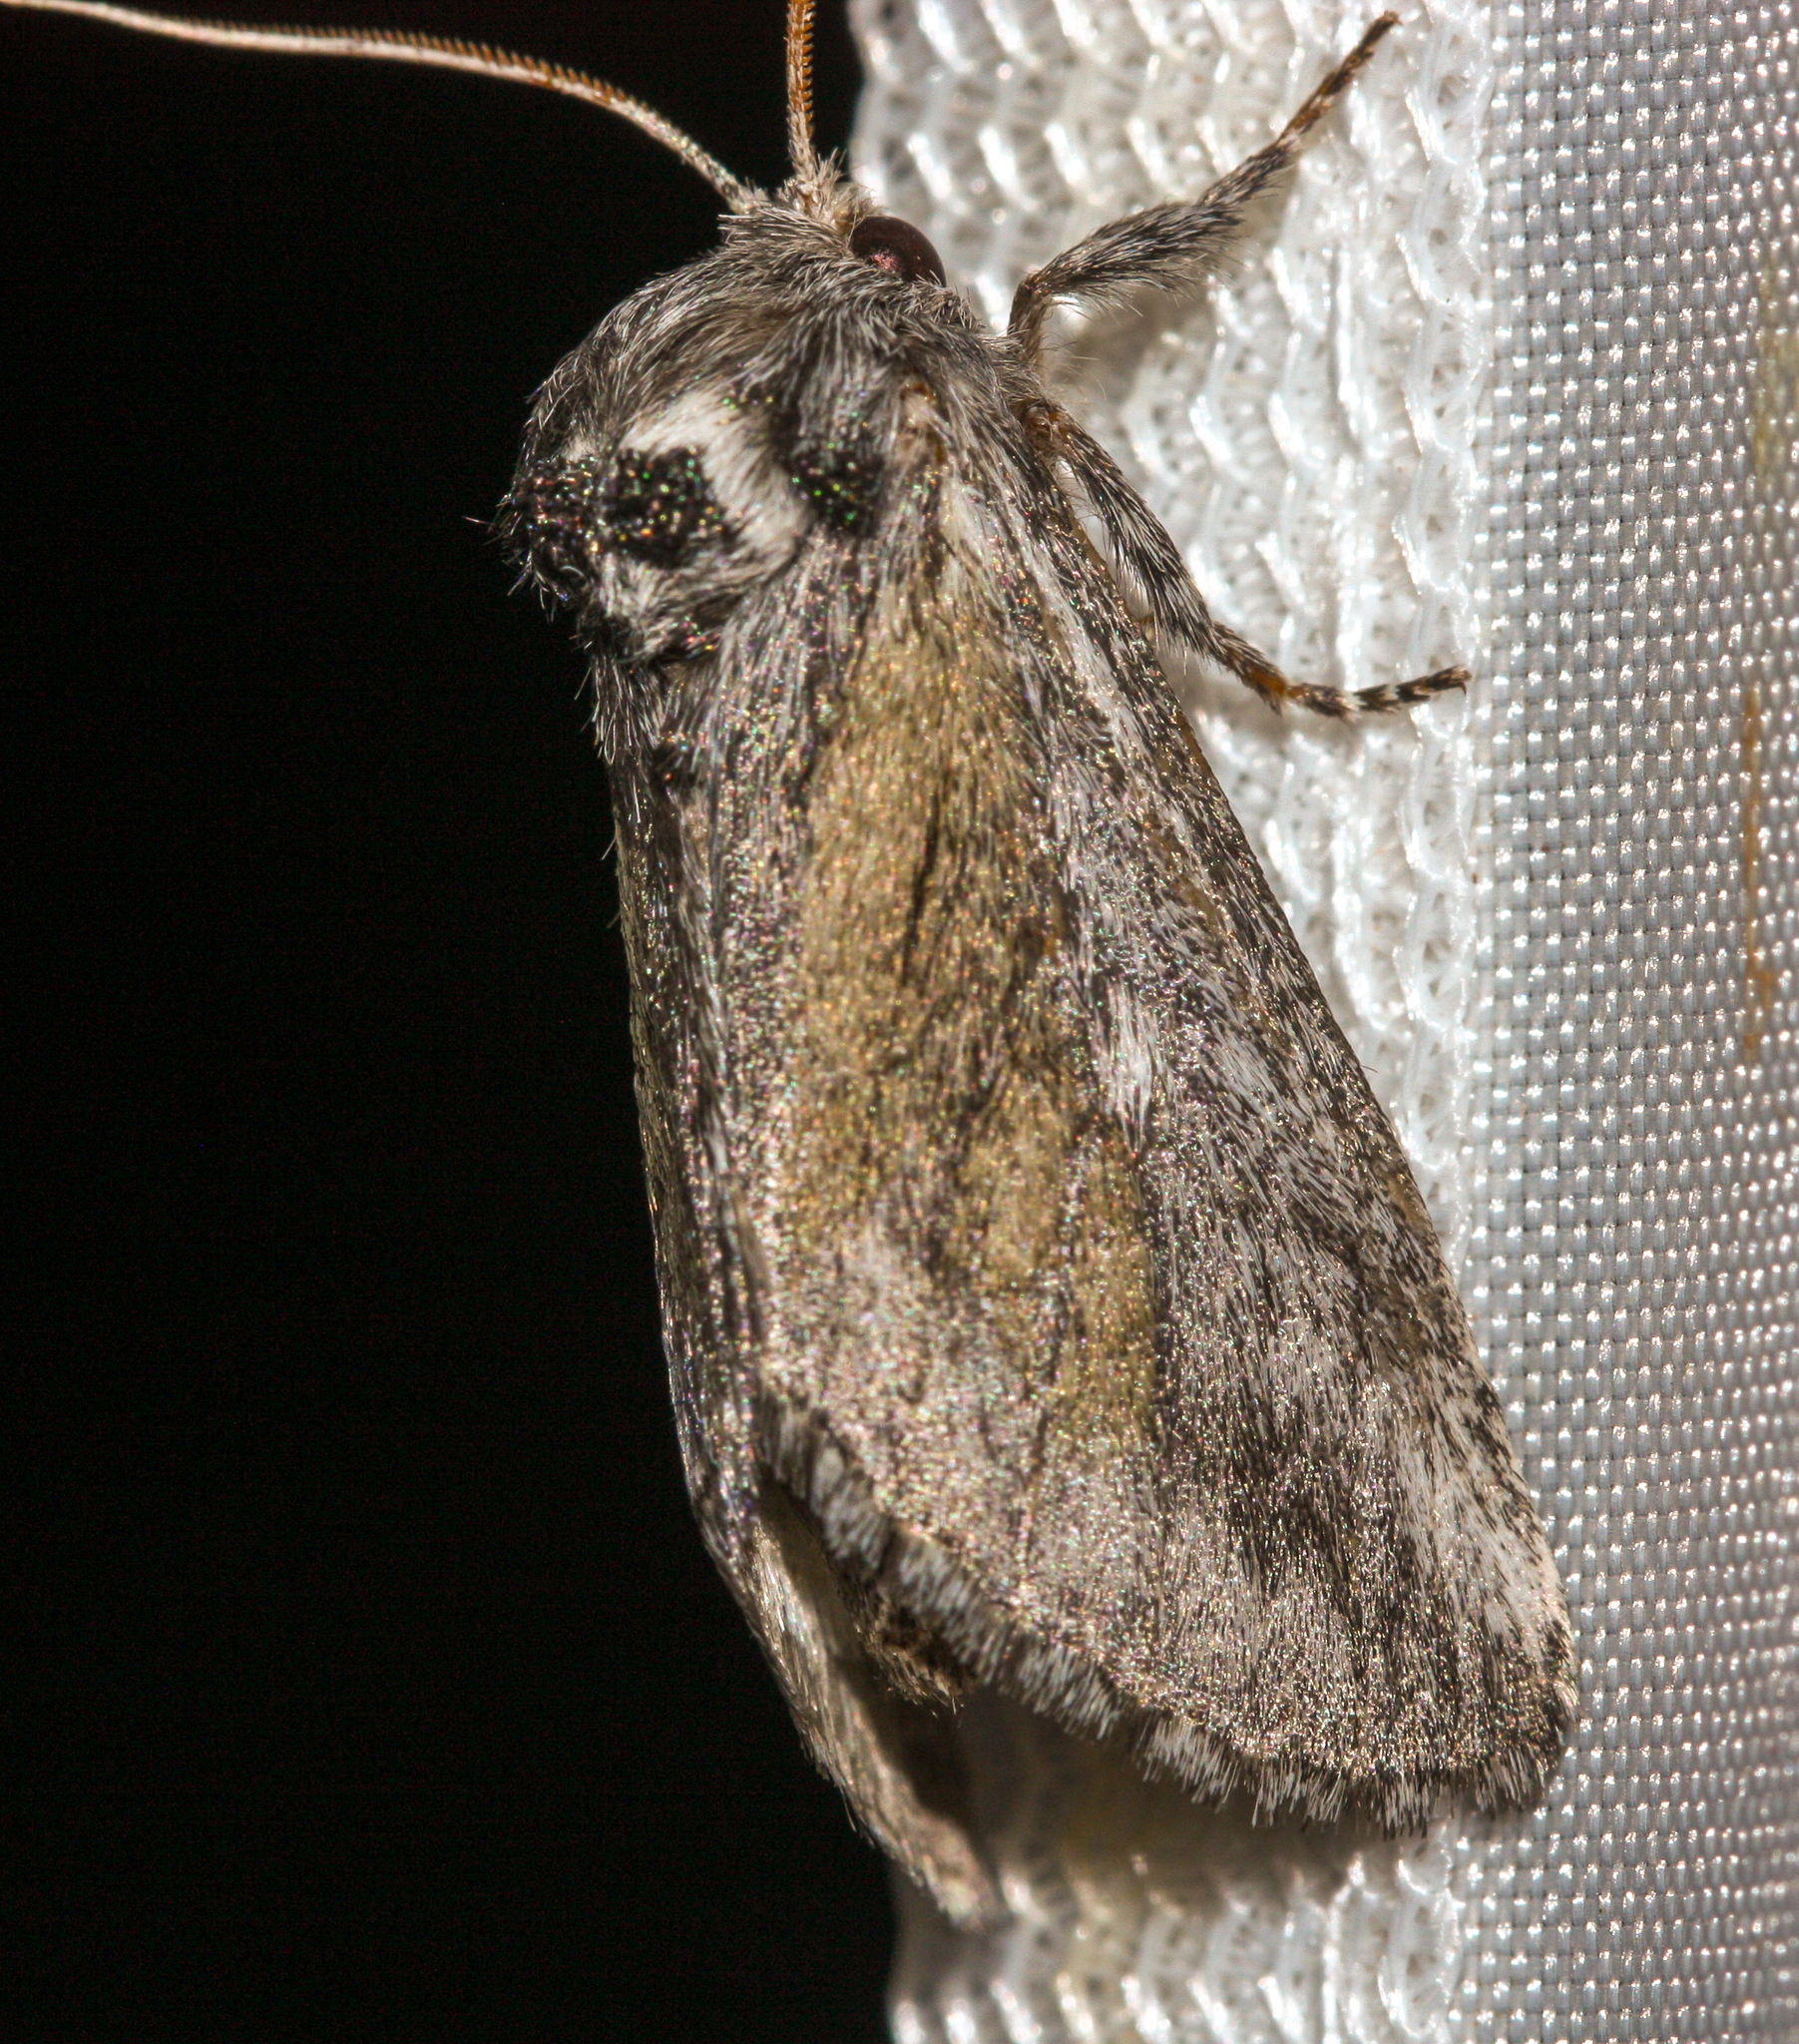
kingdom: Animalia
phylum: Arthropoda
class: Insecta
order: Lepidoptera
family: Notodontidae
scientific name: Notodontidae
